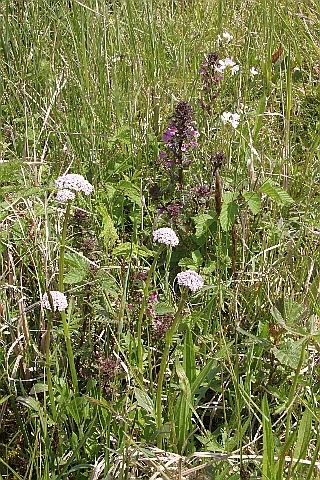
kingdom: Plantae
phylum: Tracheophyta
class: Magnoliopsida
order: Dipsacales
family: Caprifoliaceae
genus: Valeriana
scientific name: Valeriana dioica
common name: Marsh valerian
